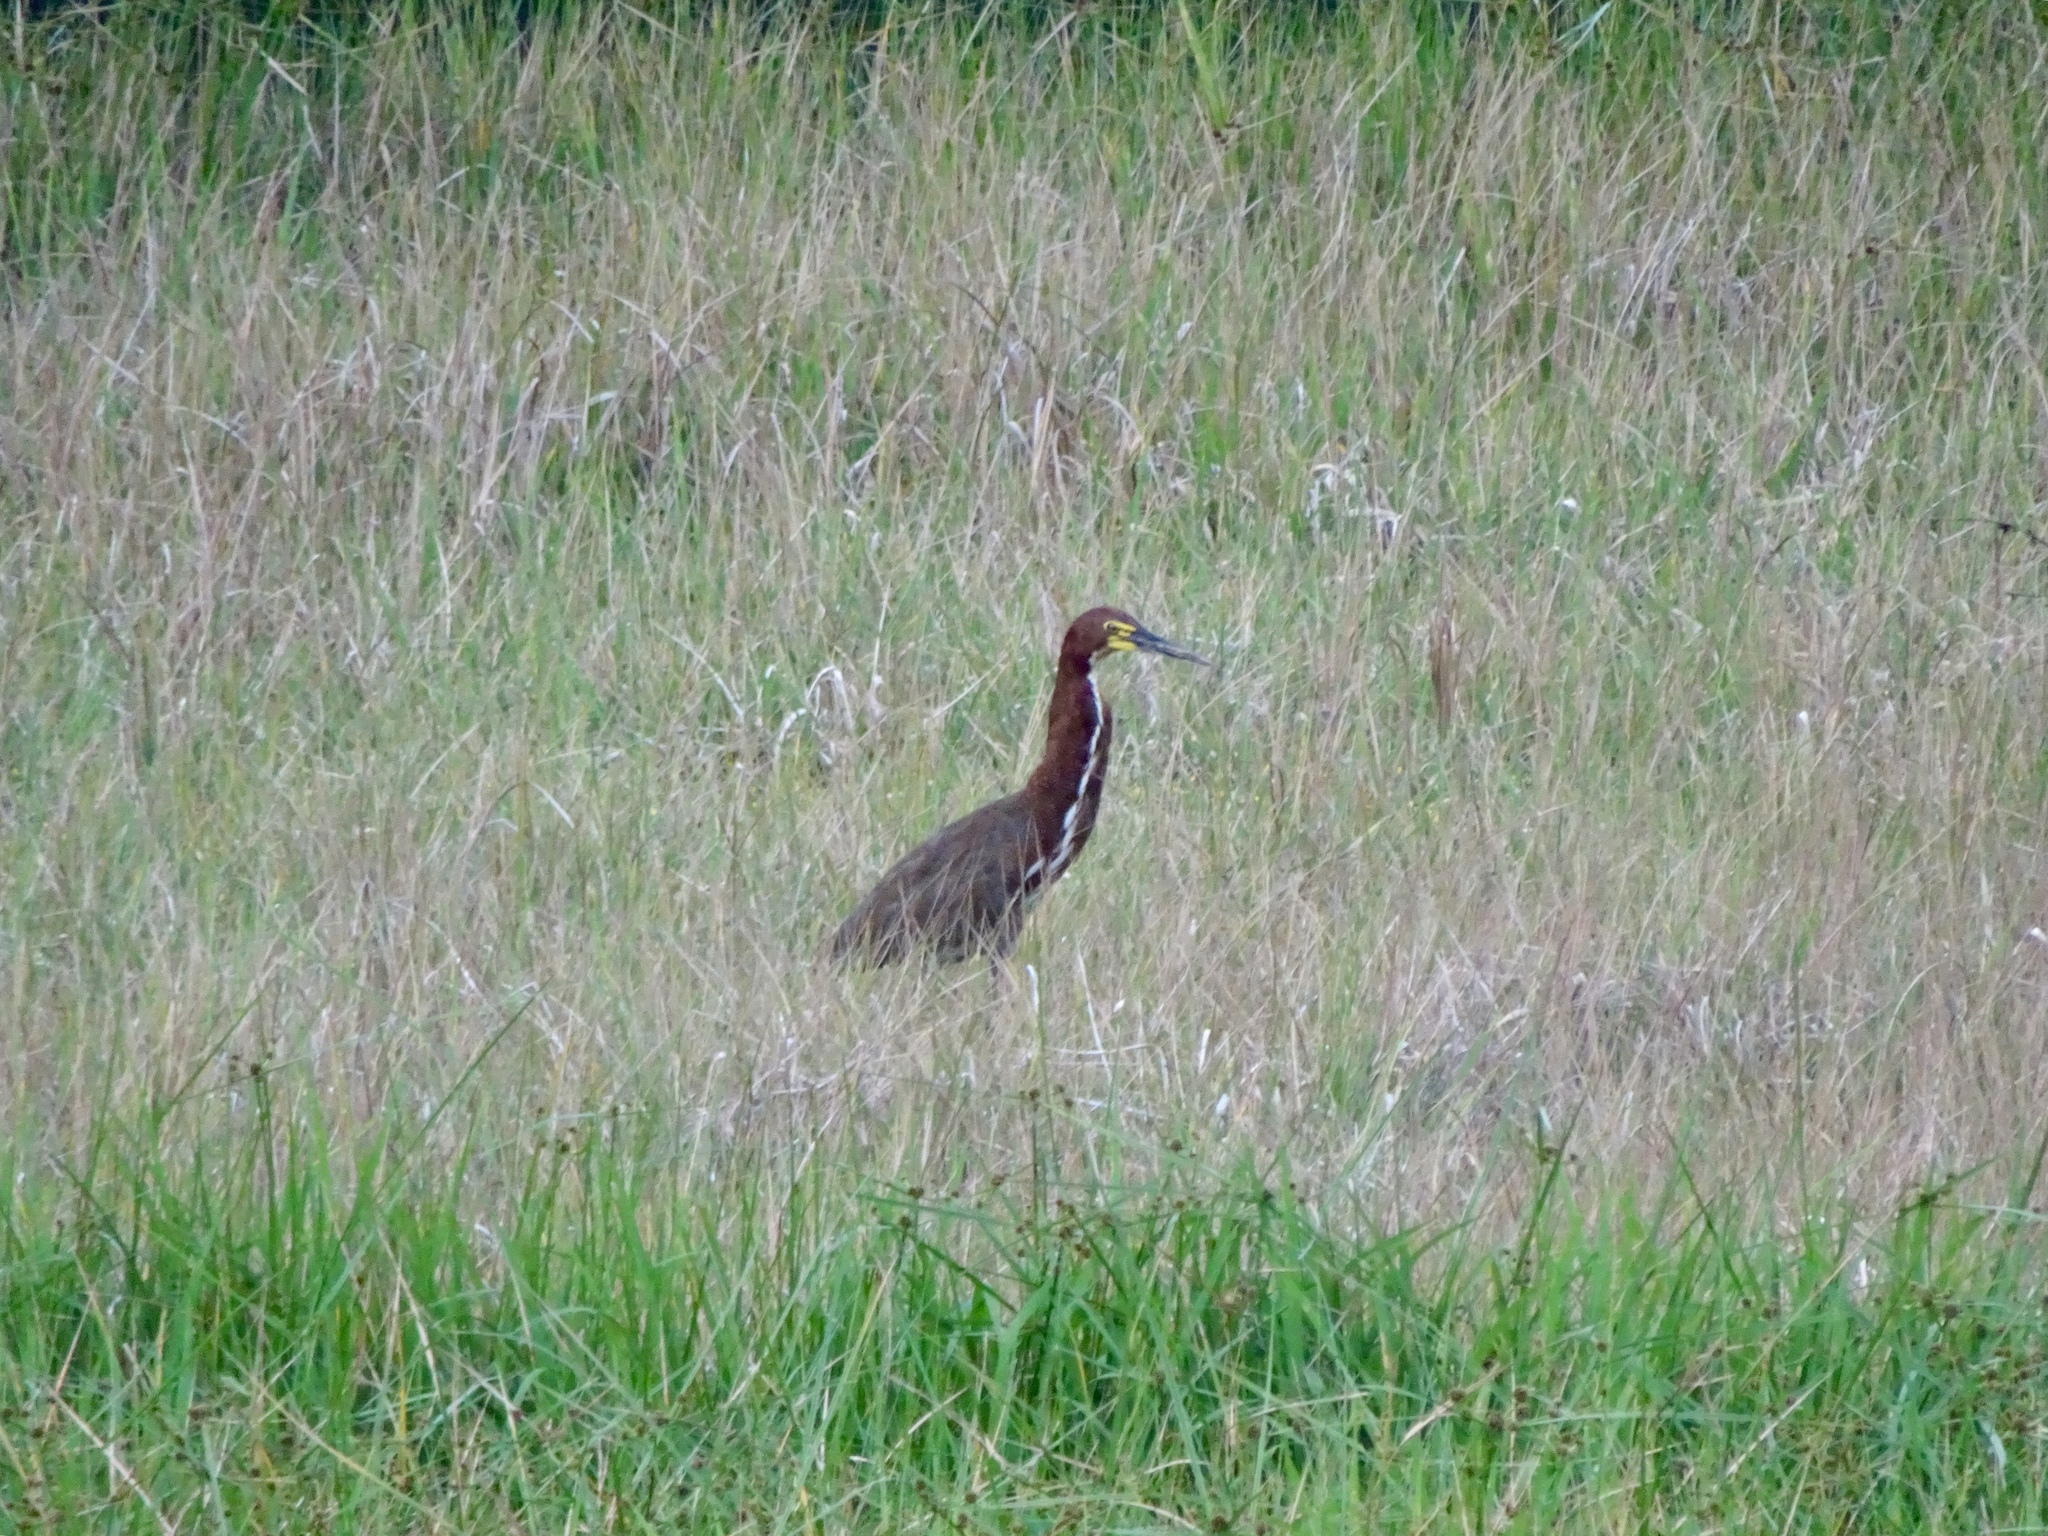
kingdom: Animalia
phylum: Chordata
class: Aves
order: Pelecaniformes
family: Ardeidae
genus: Tigrisoma
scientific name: Tigrisoma lineatum
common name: Rufescent tiger-heron
